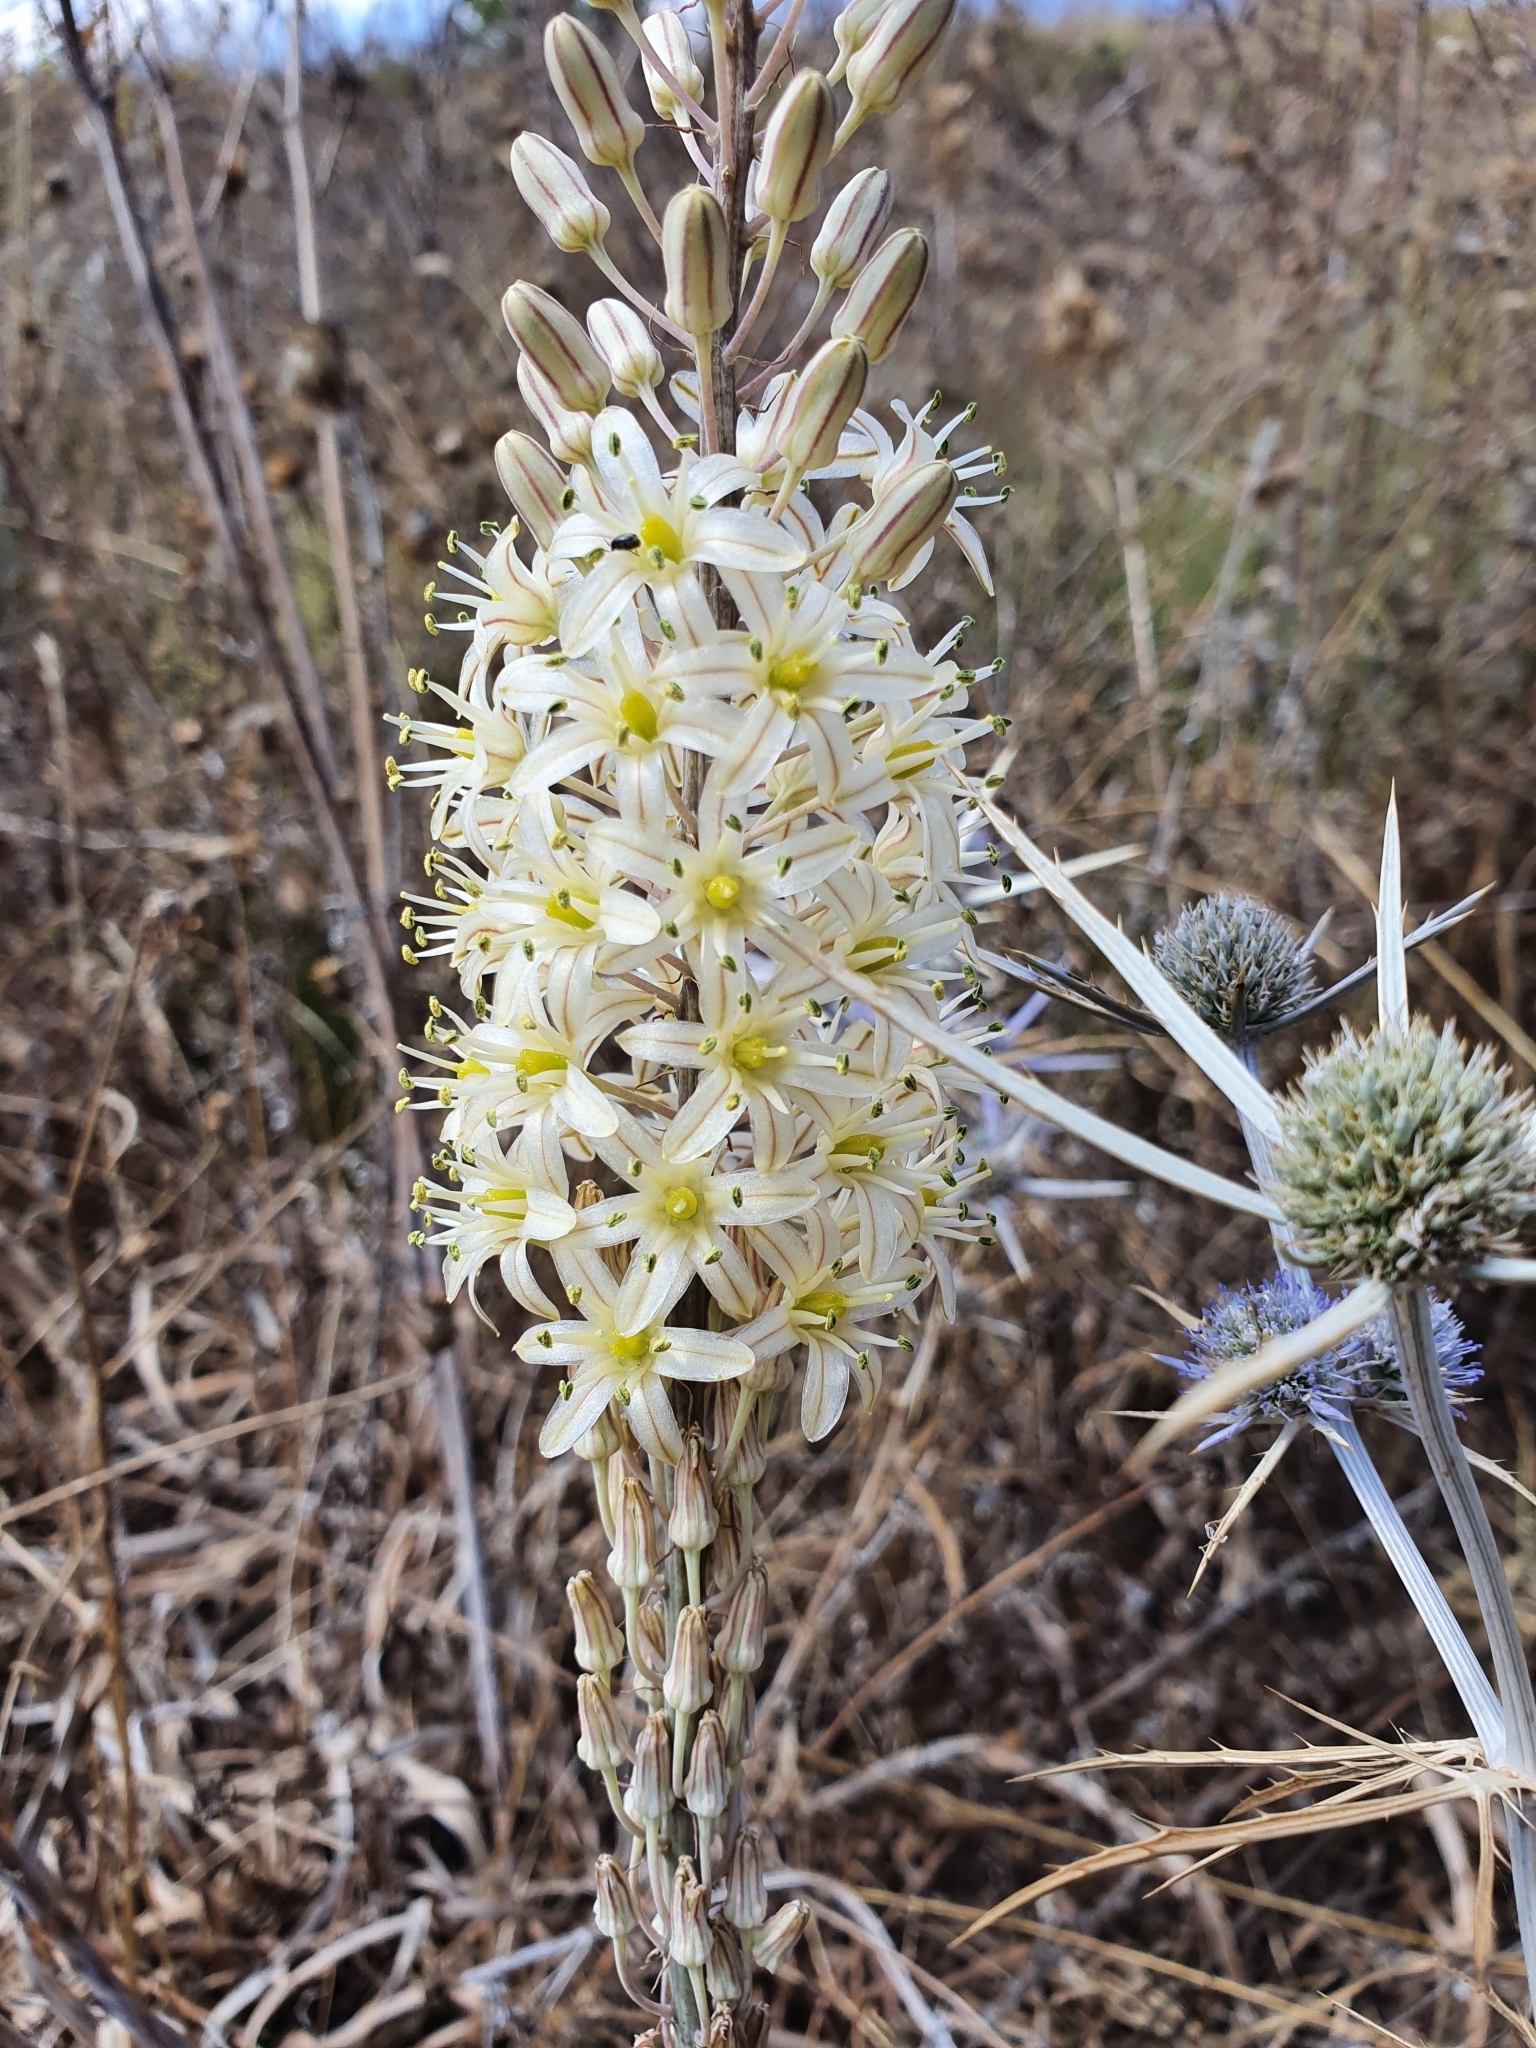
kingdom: Plantae
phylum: Tracheophyta
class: Liliopsida
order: Asparagales
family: Asparagaceae
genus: Drimia
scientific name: Drimia anthericoides
